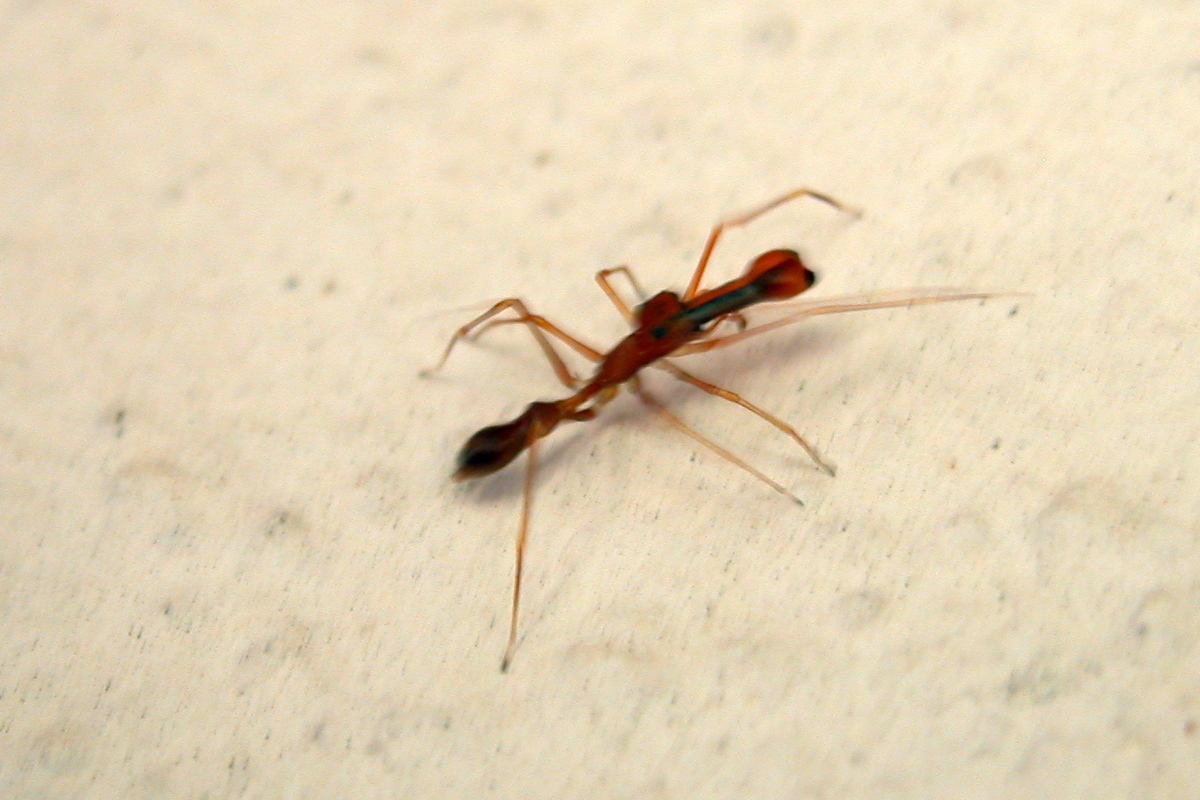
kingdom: Animalia
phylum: Arthropoda
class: Arachnida
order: Araneae
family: Salticidae
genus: Myrmaplata
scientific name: Myrmaplata plataleoides
